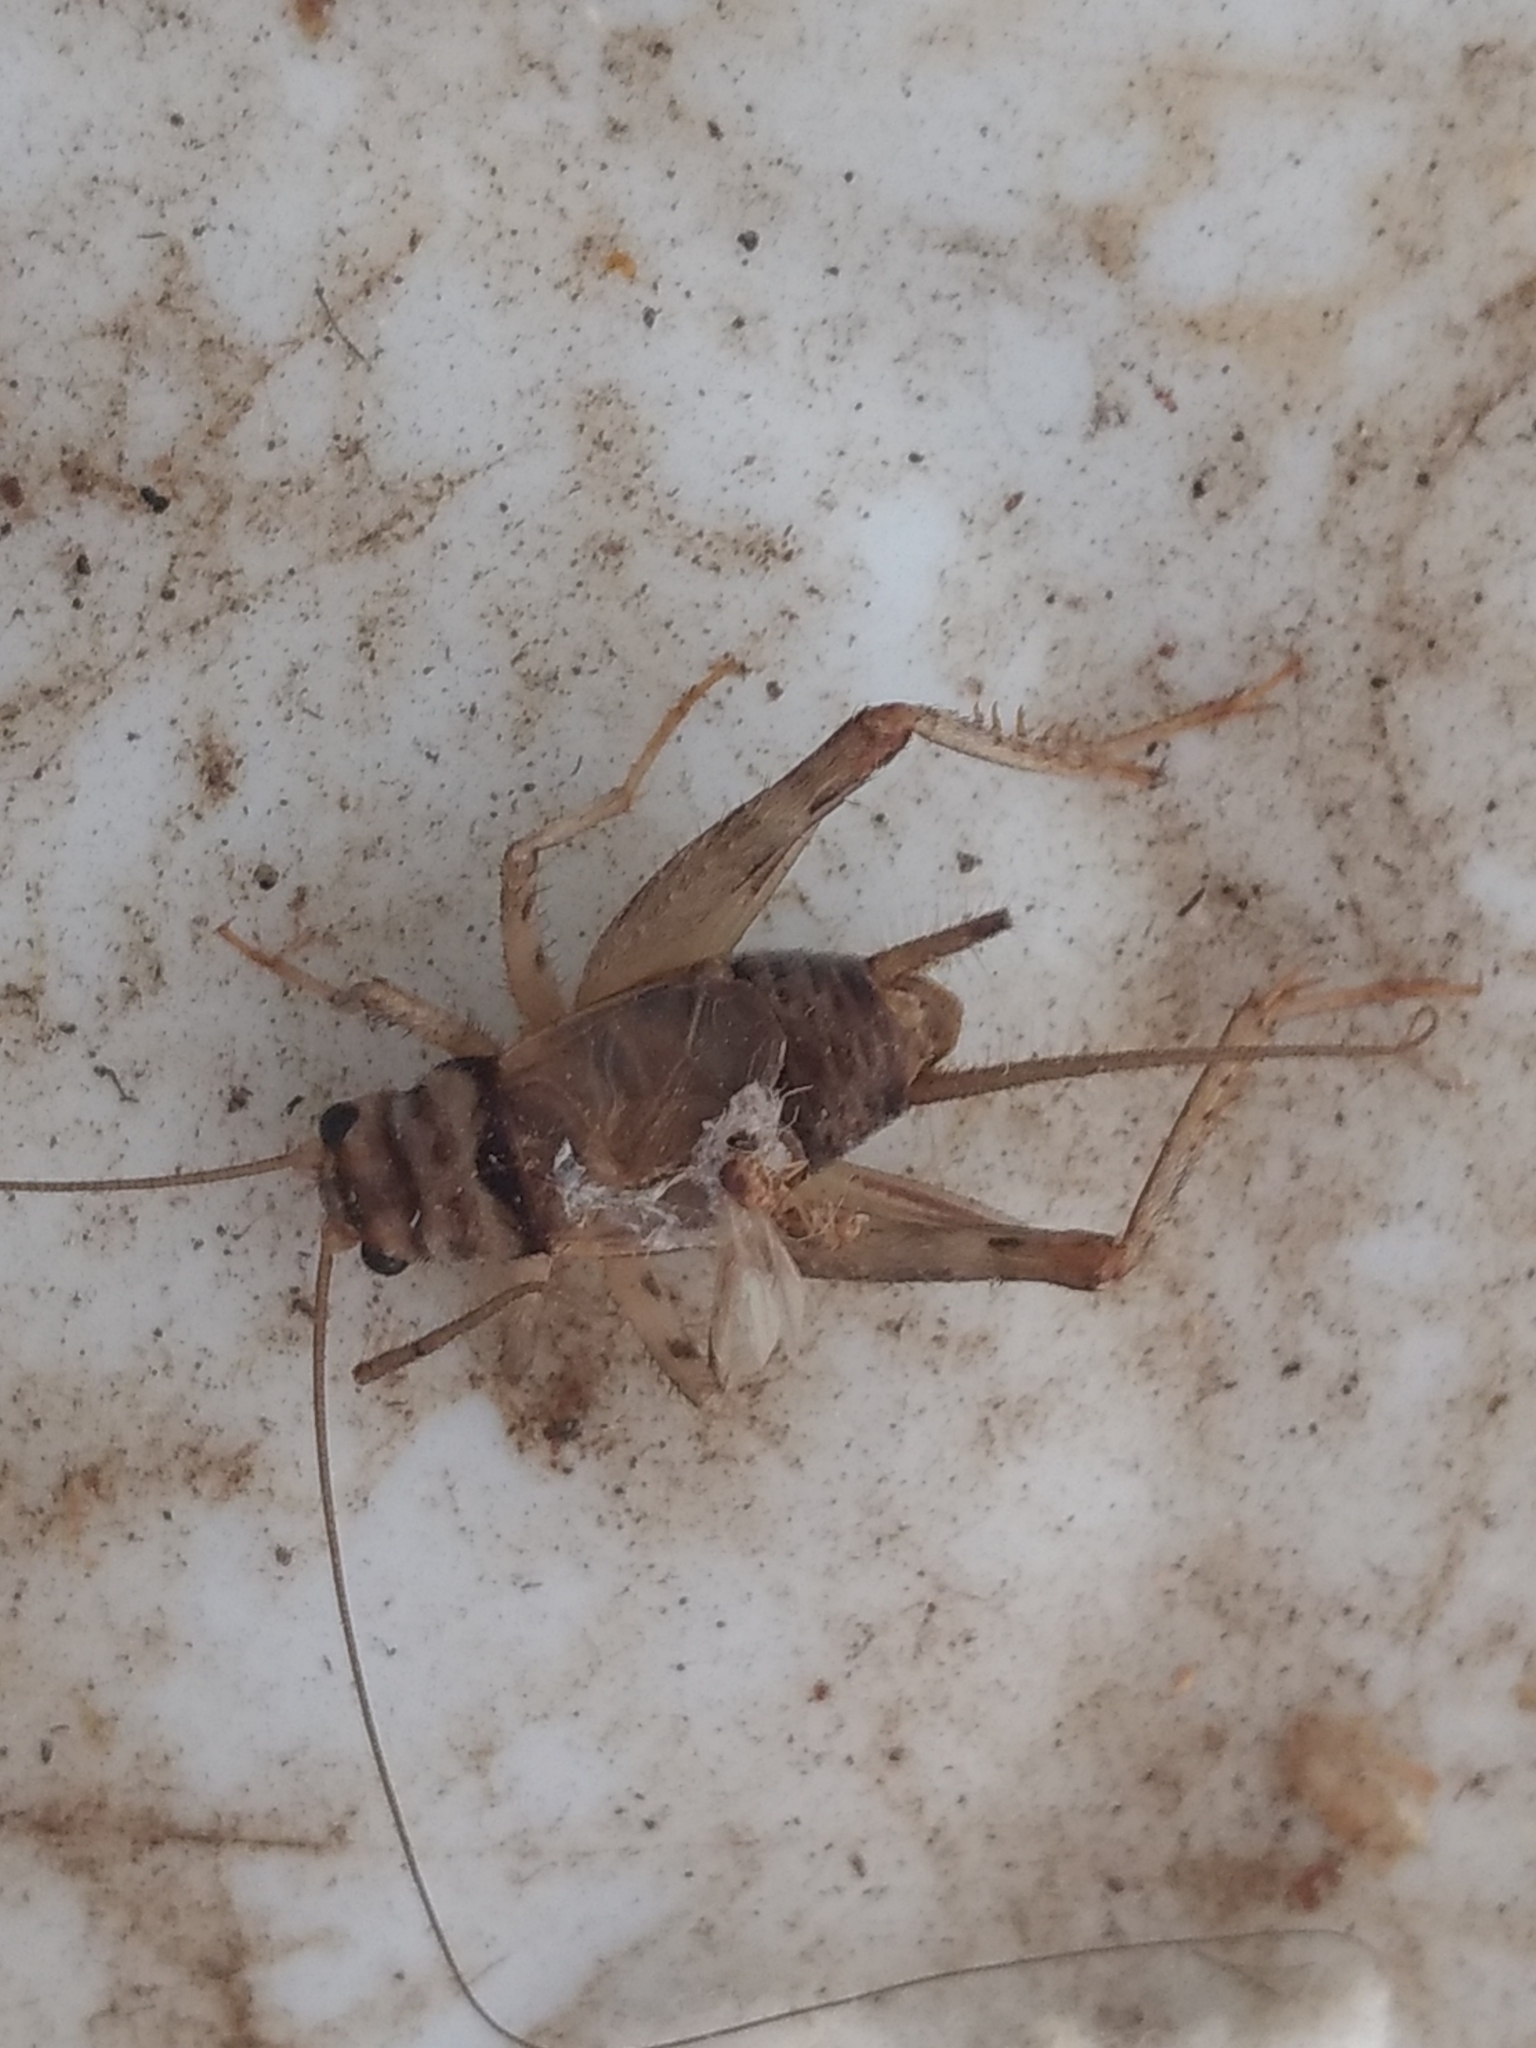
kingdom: Animalia
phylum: Arthropoda
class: Insecta
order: Orthoptera
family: Gryllidae
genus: Gryllodes
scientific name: Gryllodes sigillatus
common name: Tropical house cricket
